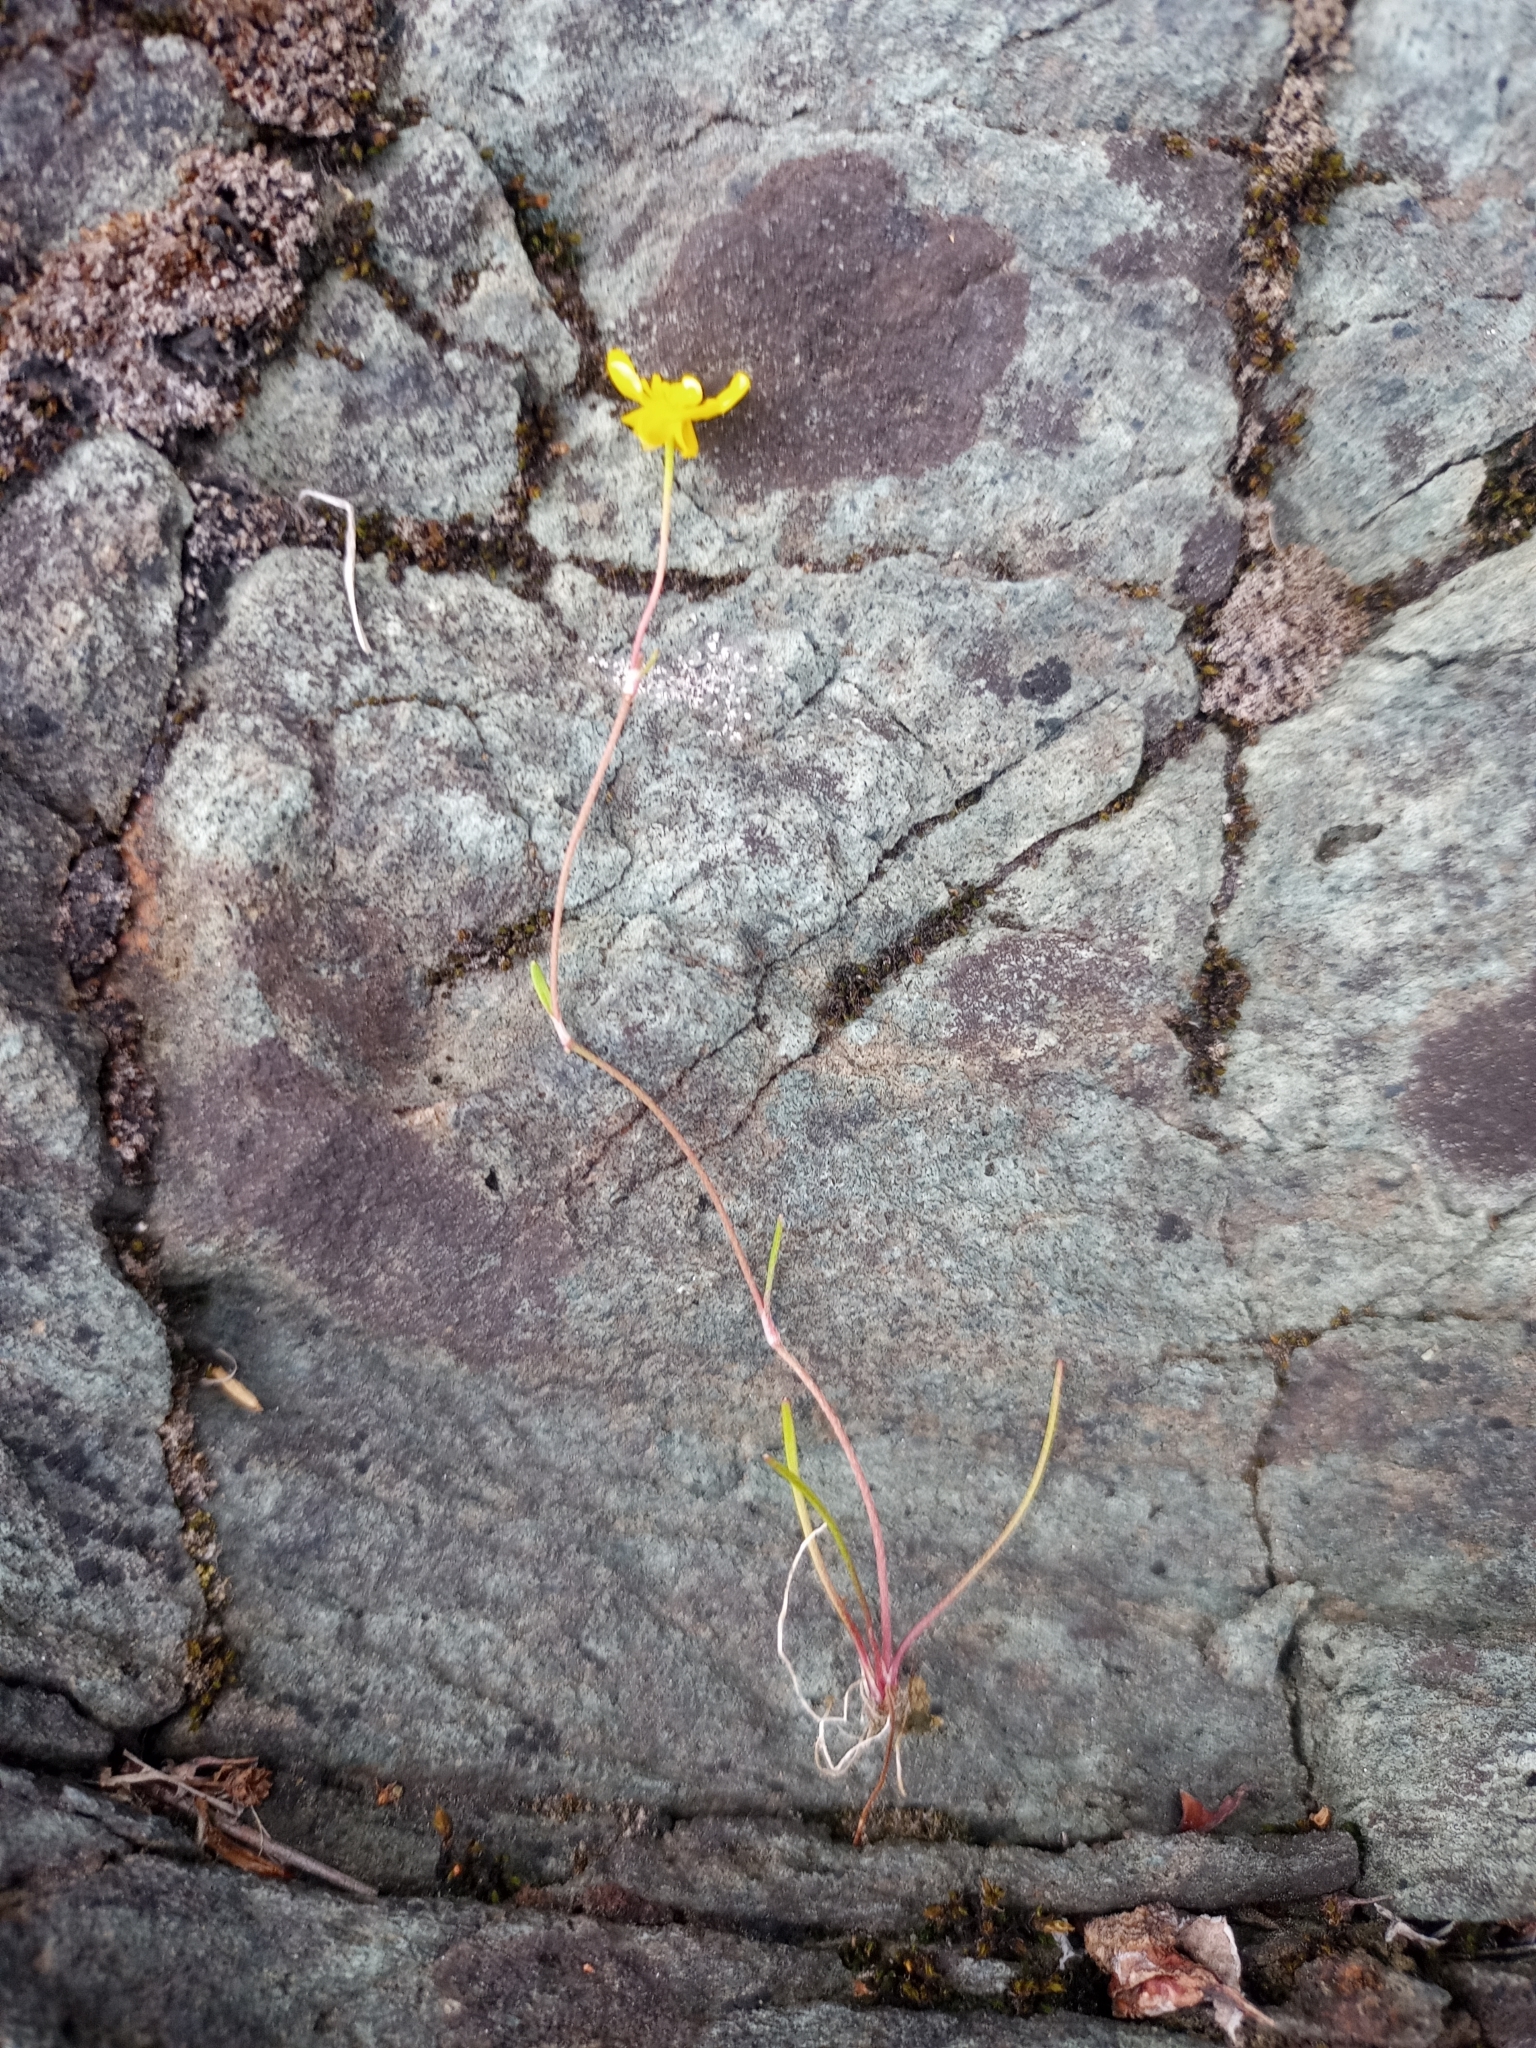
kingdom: Plantae
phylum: Tracheophyta
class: Magnoliopsida
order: Ranunculales
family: Ranunculaceae
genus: Ranunculus
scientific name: Ranunculus reptans
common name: Creeping spearwort
